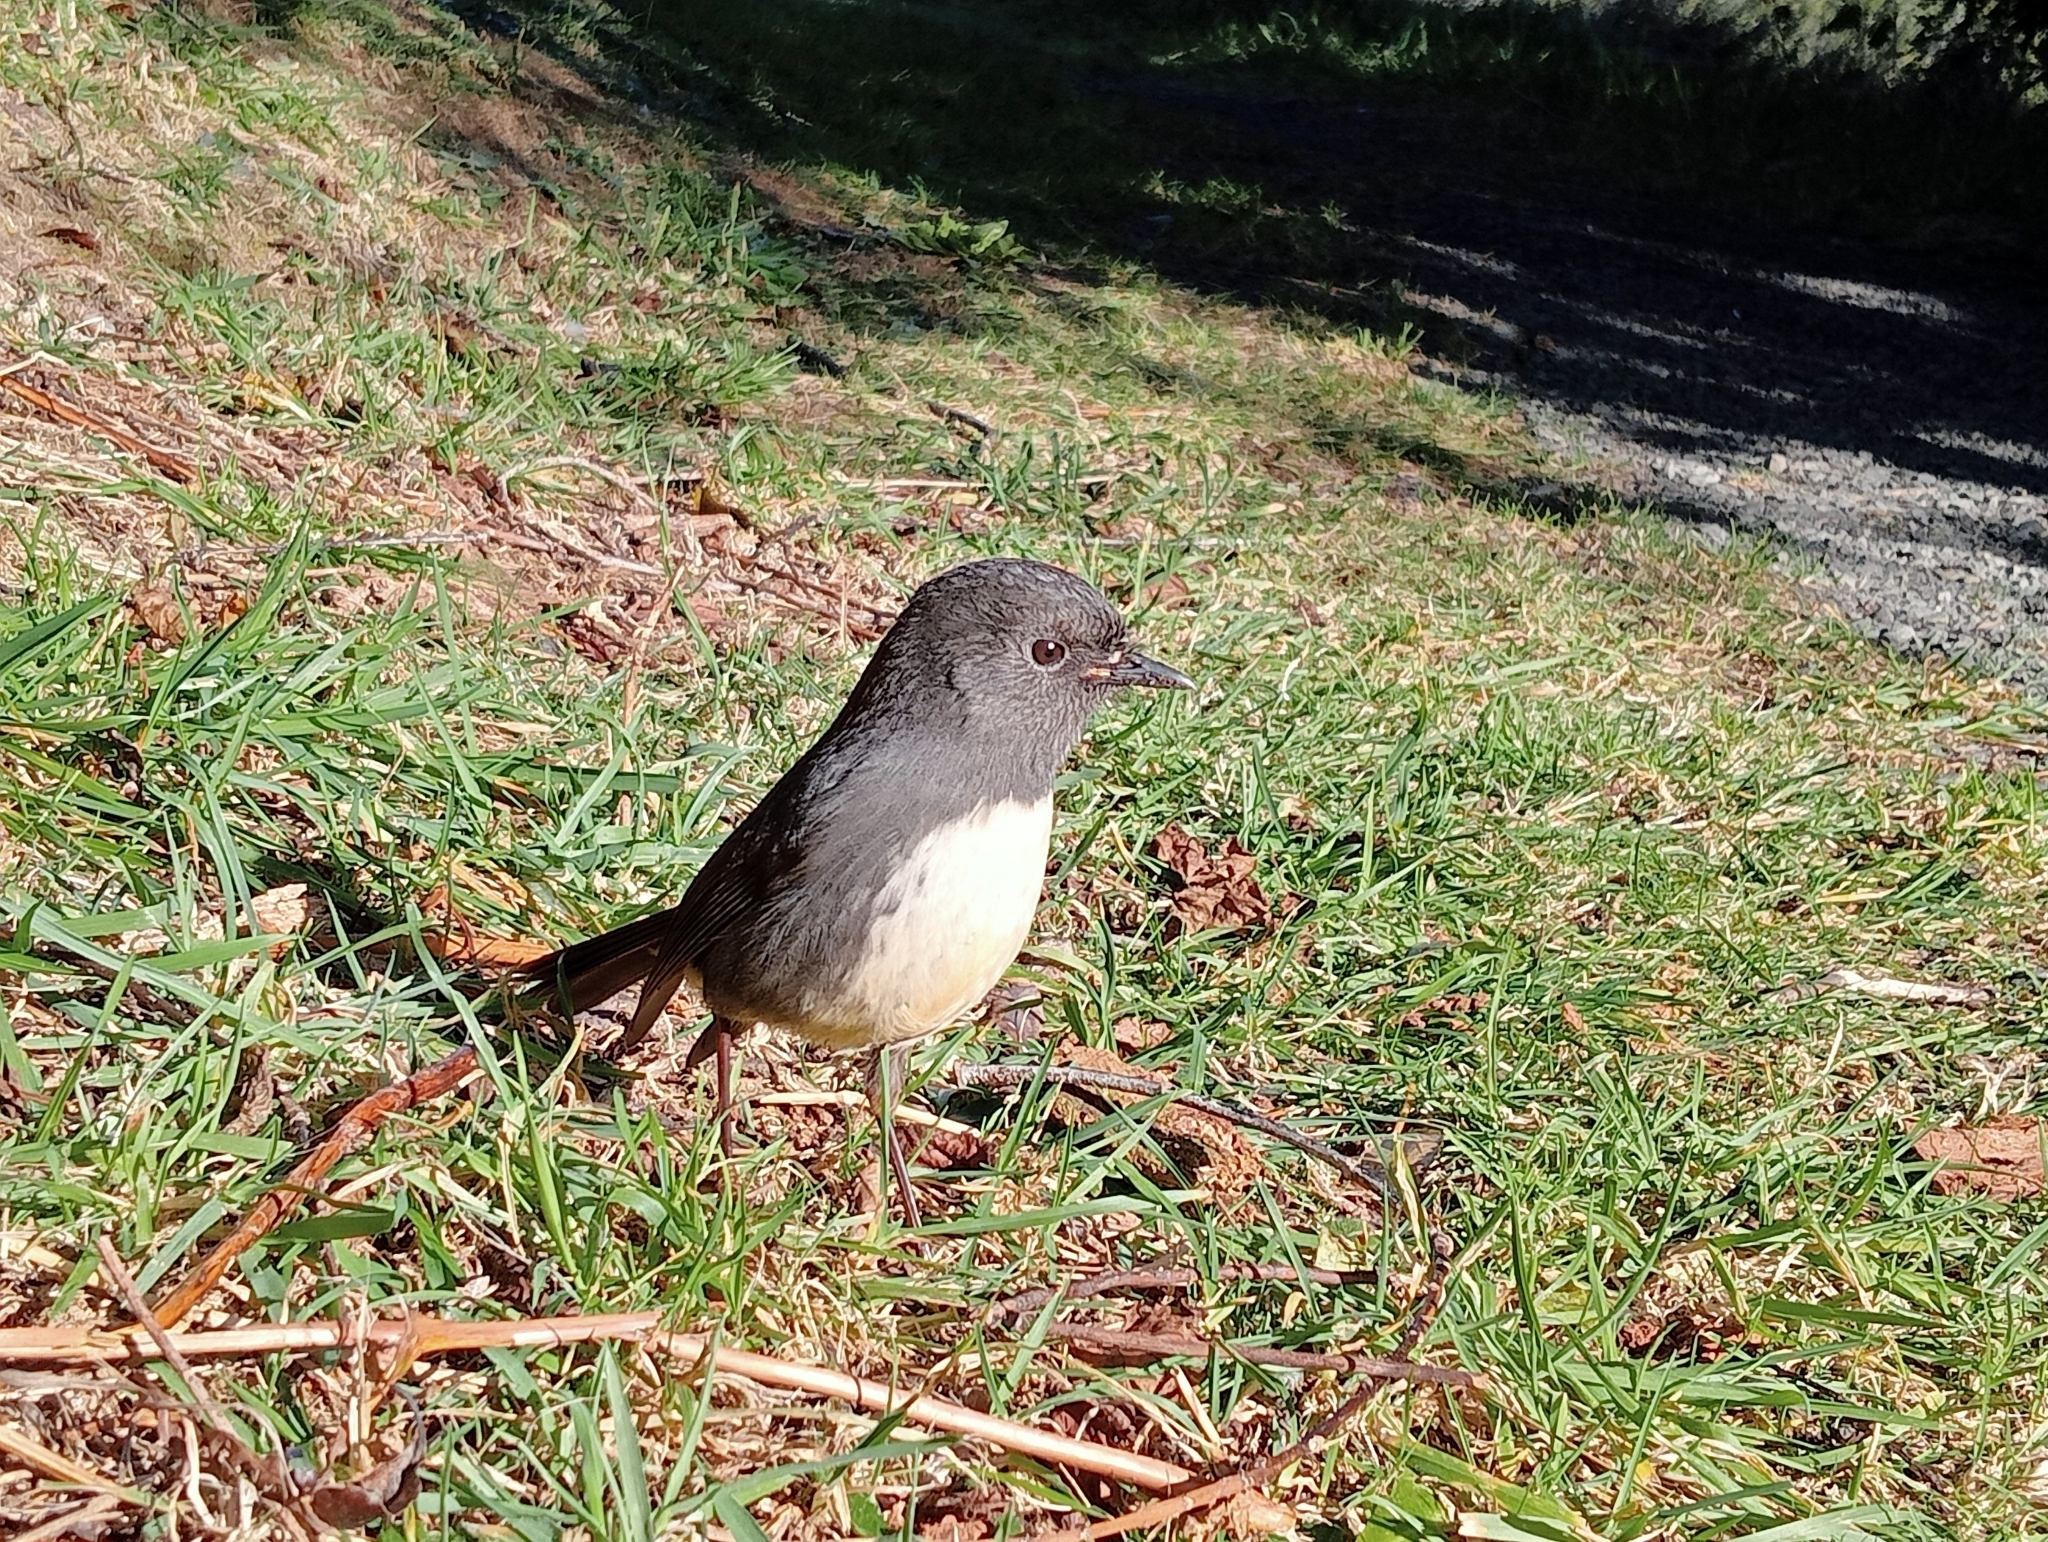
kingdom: Animalia
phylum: Chordata
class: Aves
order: Passeriformes
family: Petroicidae
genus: Petroica
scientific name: Petroica australis
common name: New zealand robin
